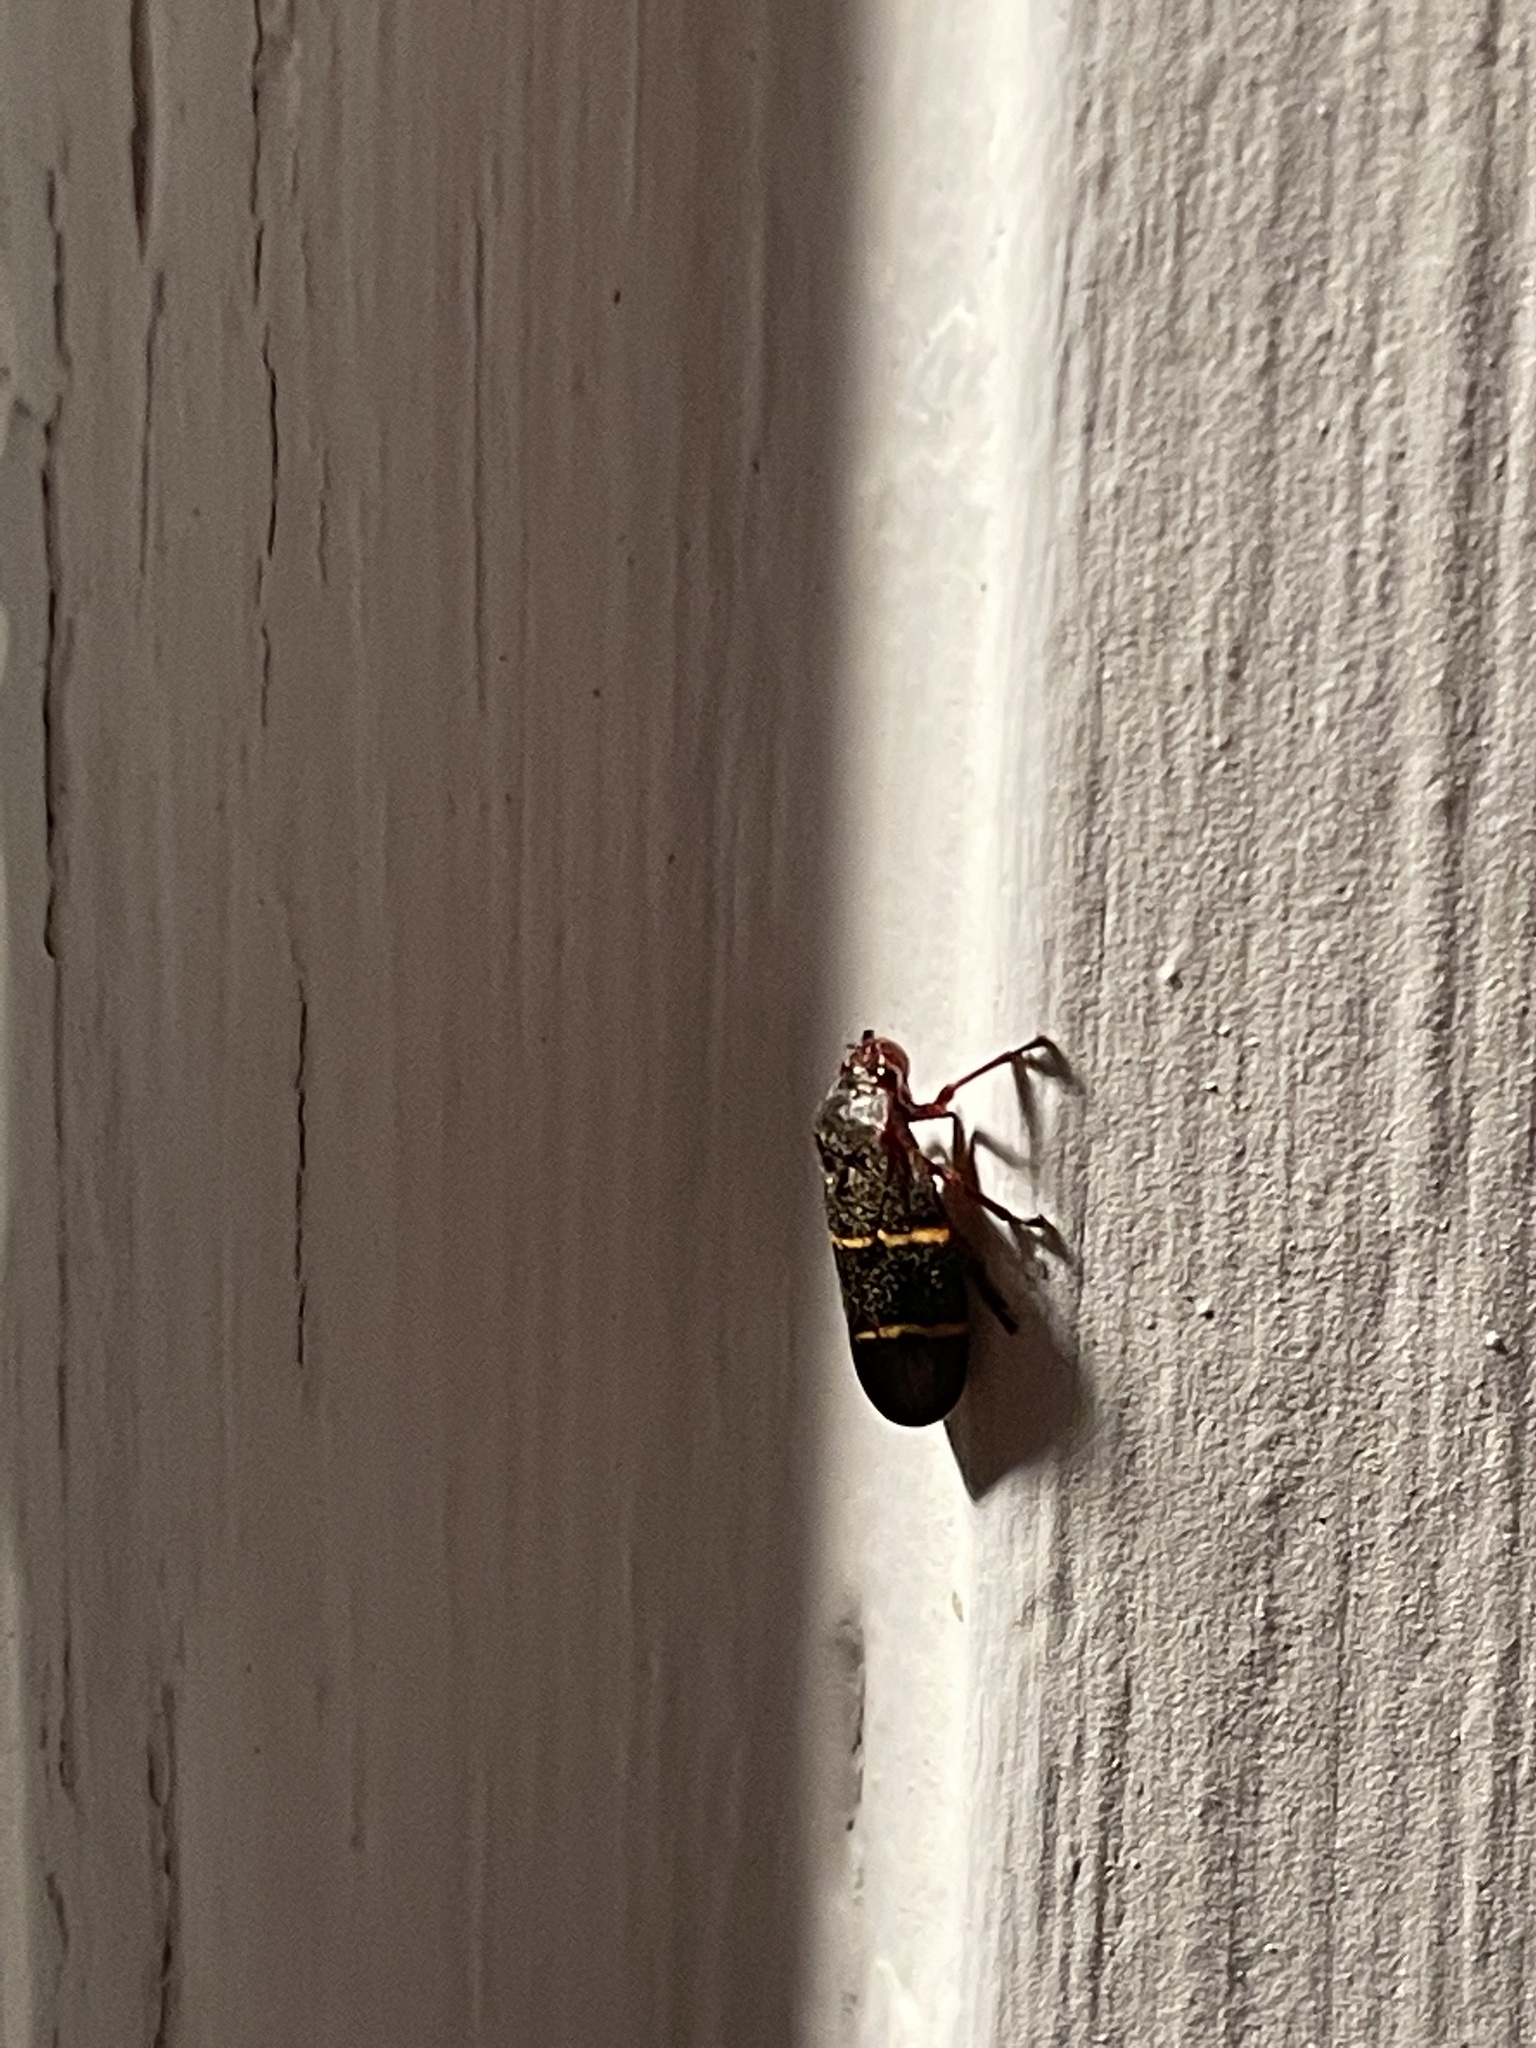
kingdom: Animalia
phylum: Arthropoda
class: Insecta
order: Hemiptera
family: Cercopidae
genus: Prosapia
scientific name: Prosapia bicincta
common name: Twolined spittlebug
